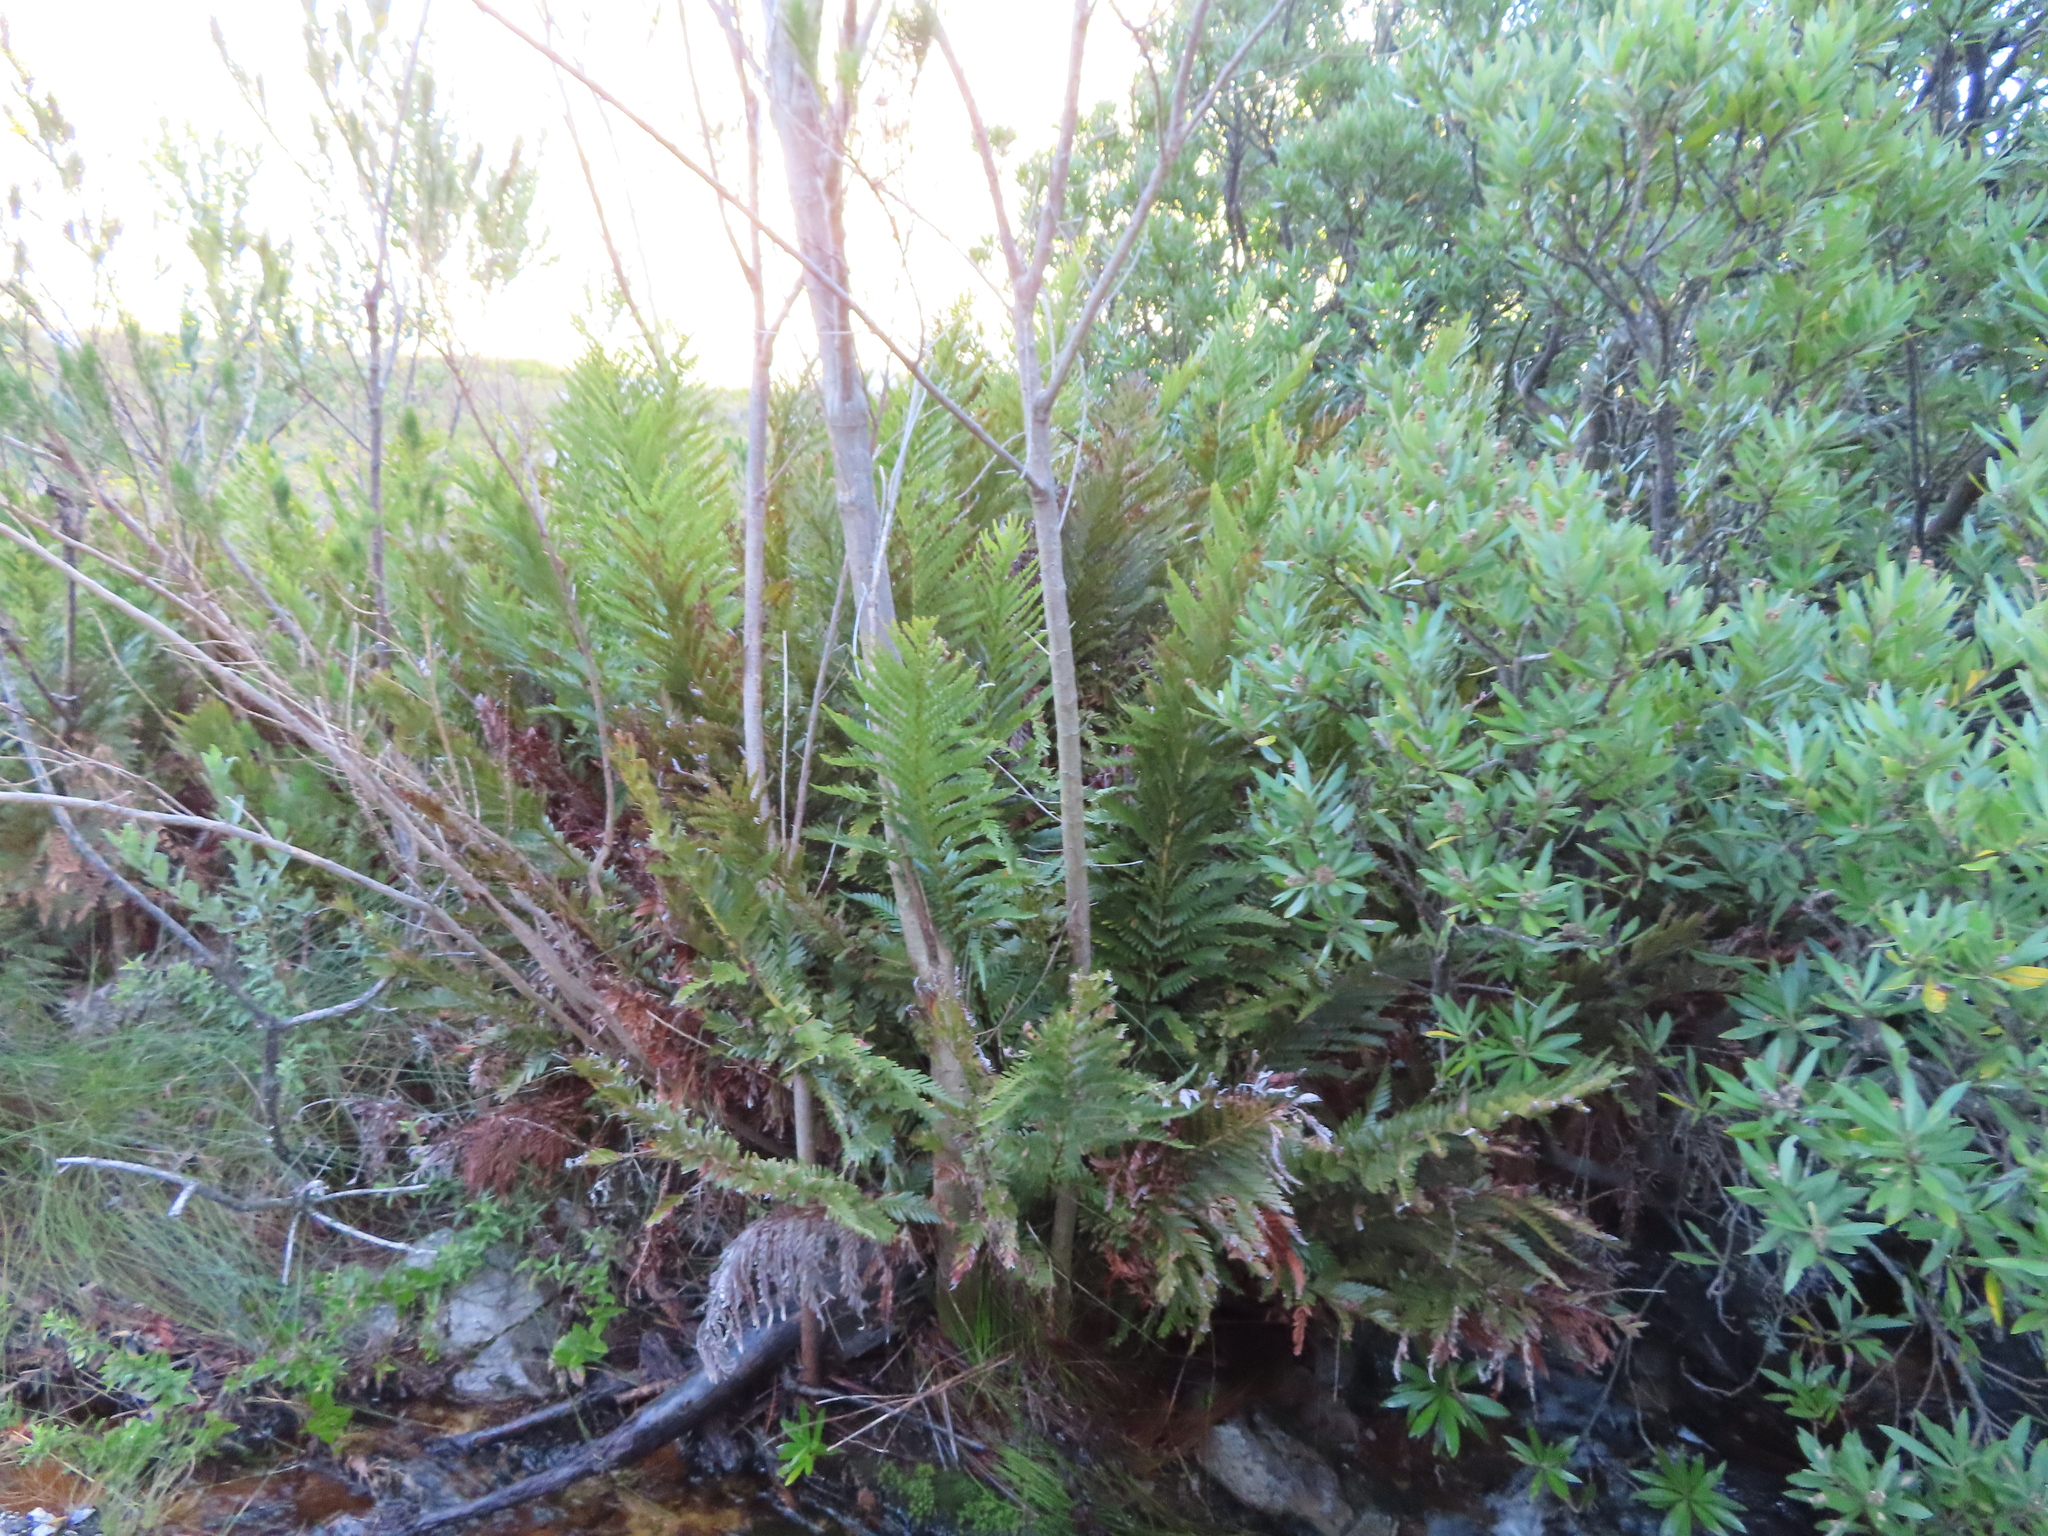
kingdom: Plantae
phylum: Tracheophyta
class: Polypodiopsida
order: Osmundales
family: Osmundaceae
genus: Todea
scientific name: Todea barbara
